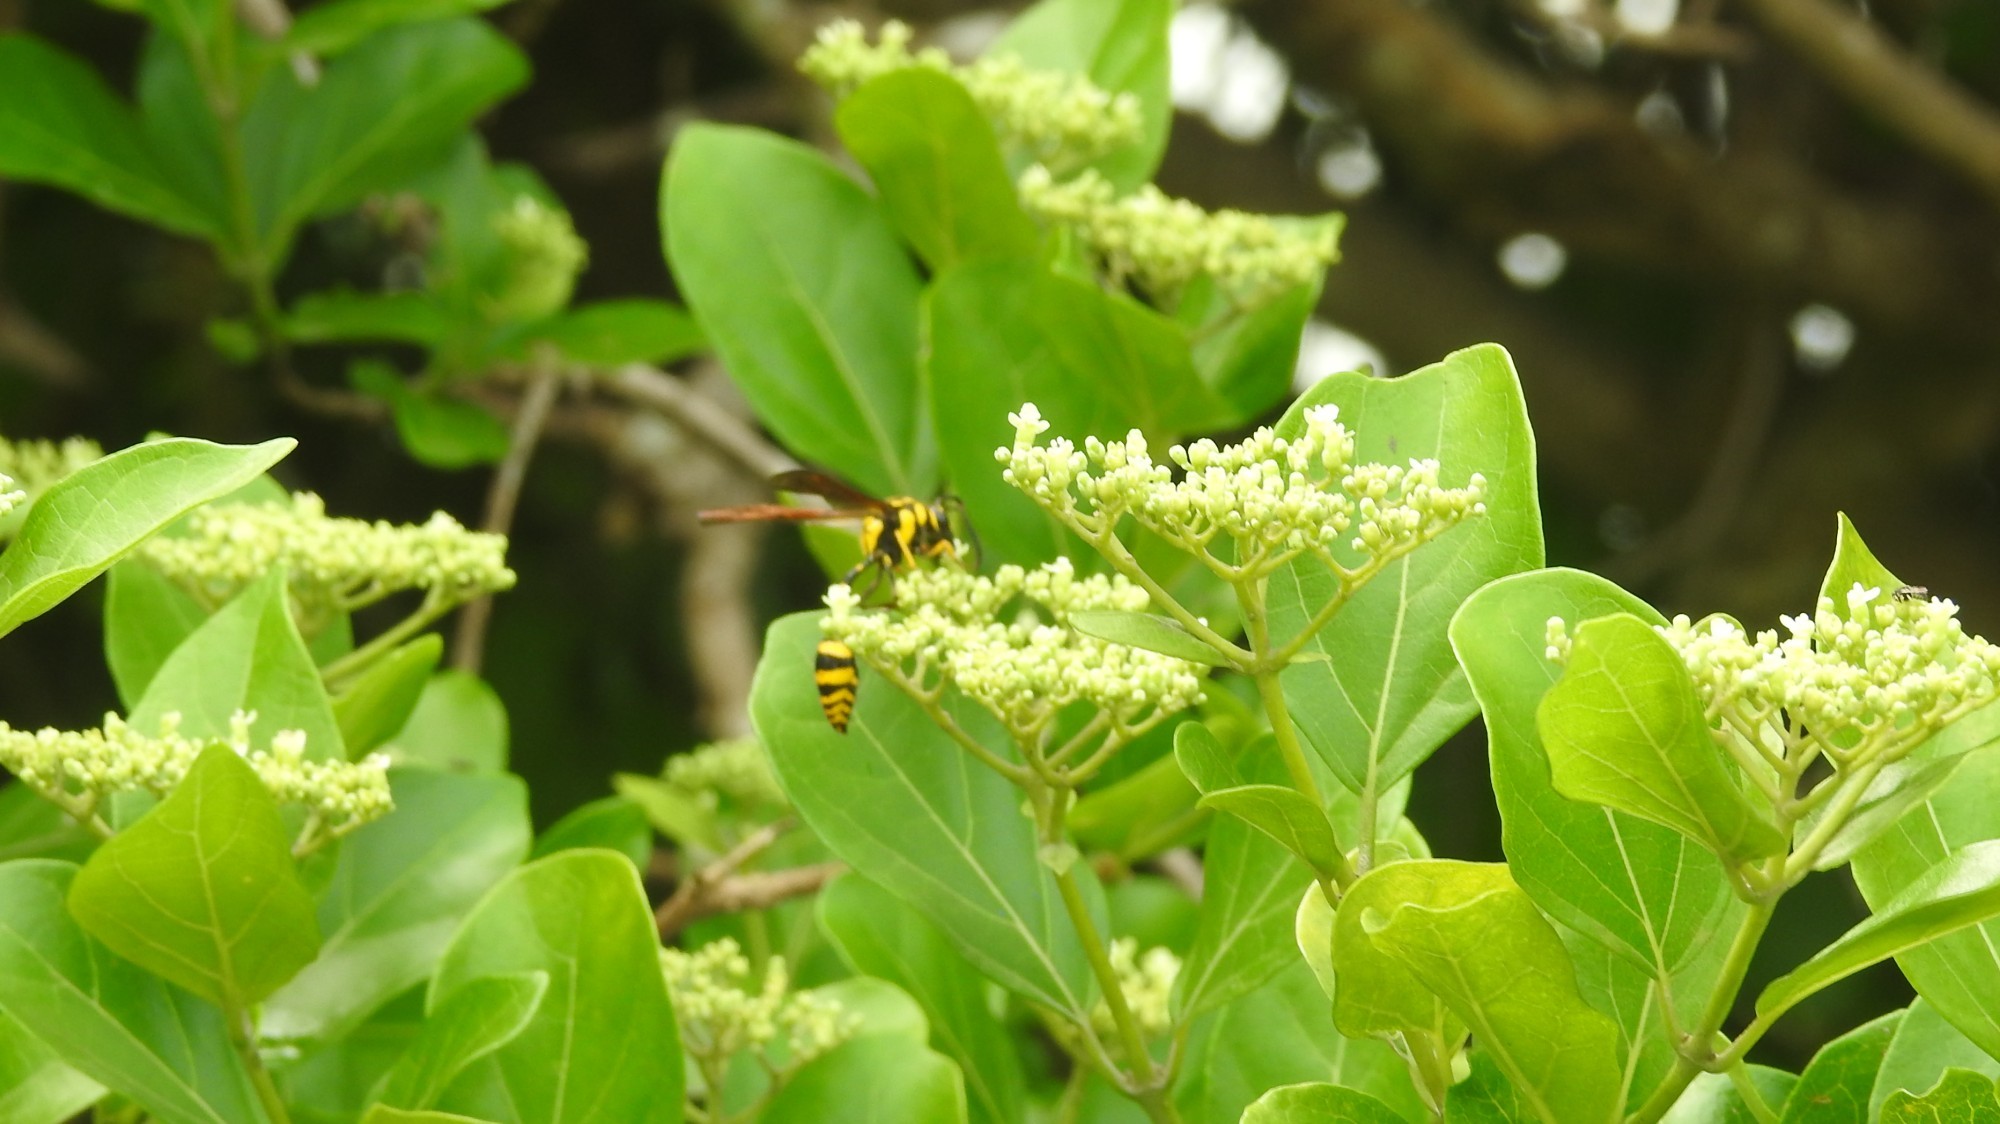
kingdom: Animalia
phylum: Arthropoda
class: Insecta
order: Hymenoptera
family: Eumenidae
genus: Phimenes
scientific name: Phimenes flavopictus
